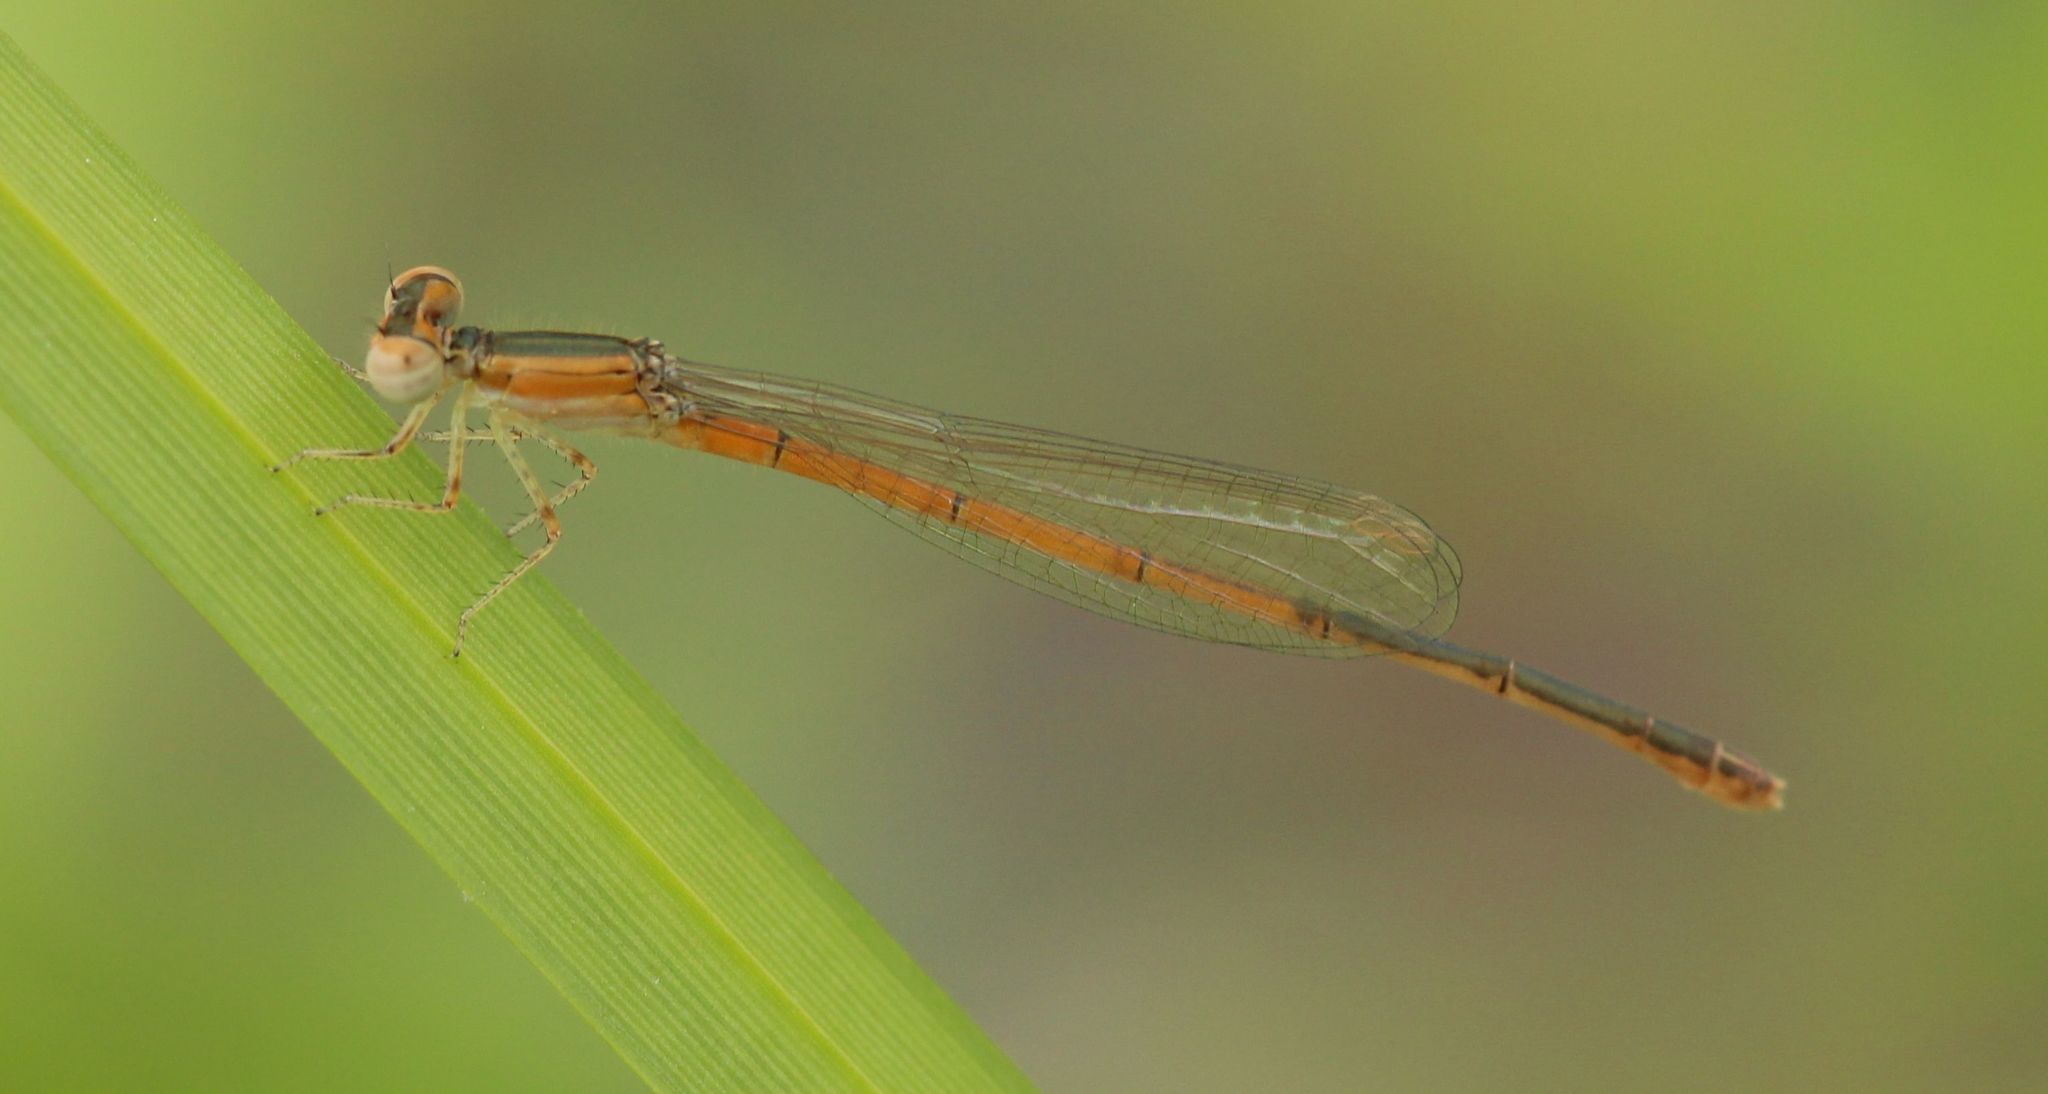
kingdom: Animalia
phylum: Arthropoda
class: Insecta
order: Odonata
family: Coenagrionidae
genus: Ischnura
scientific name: Ischnura hastata
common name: Citrine forktail
